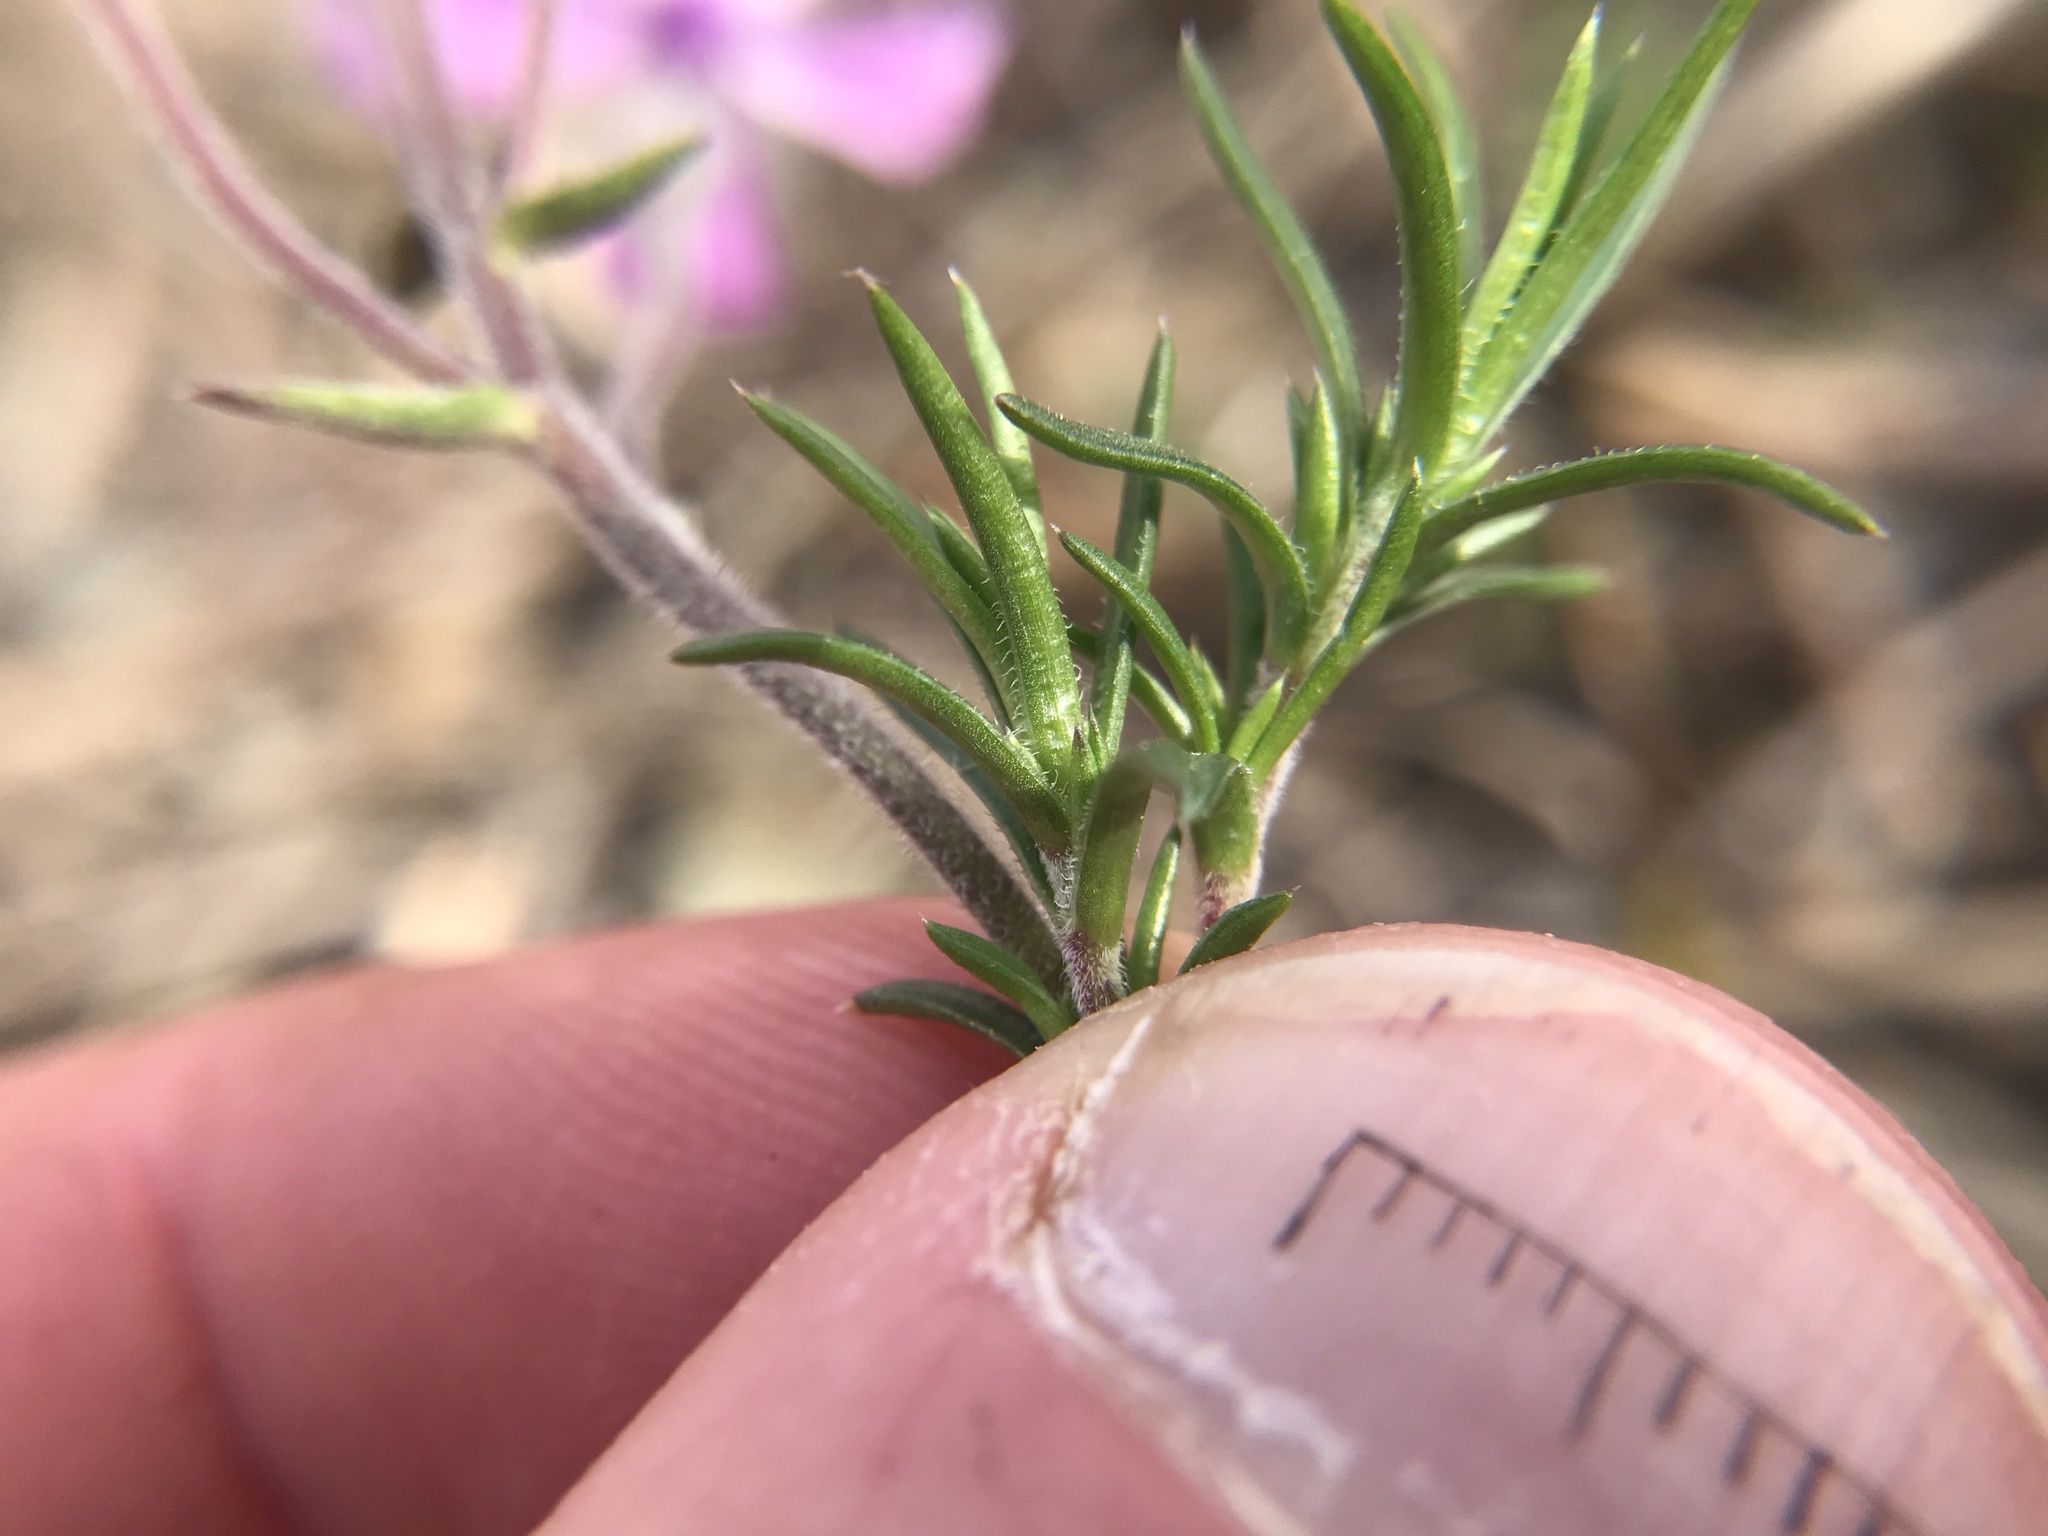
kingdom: Plantae
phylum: Tracheophyta
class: Magnoliopsida
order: Ericales
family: Polemoniaceae
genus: Phlox
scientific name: Phlox subulata
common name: Moss phlox
